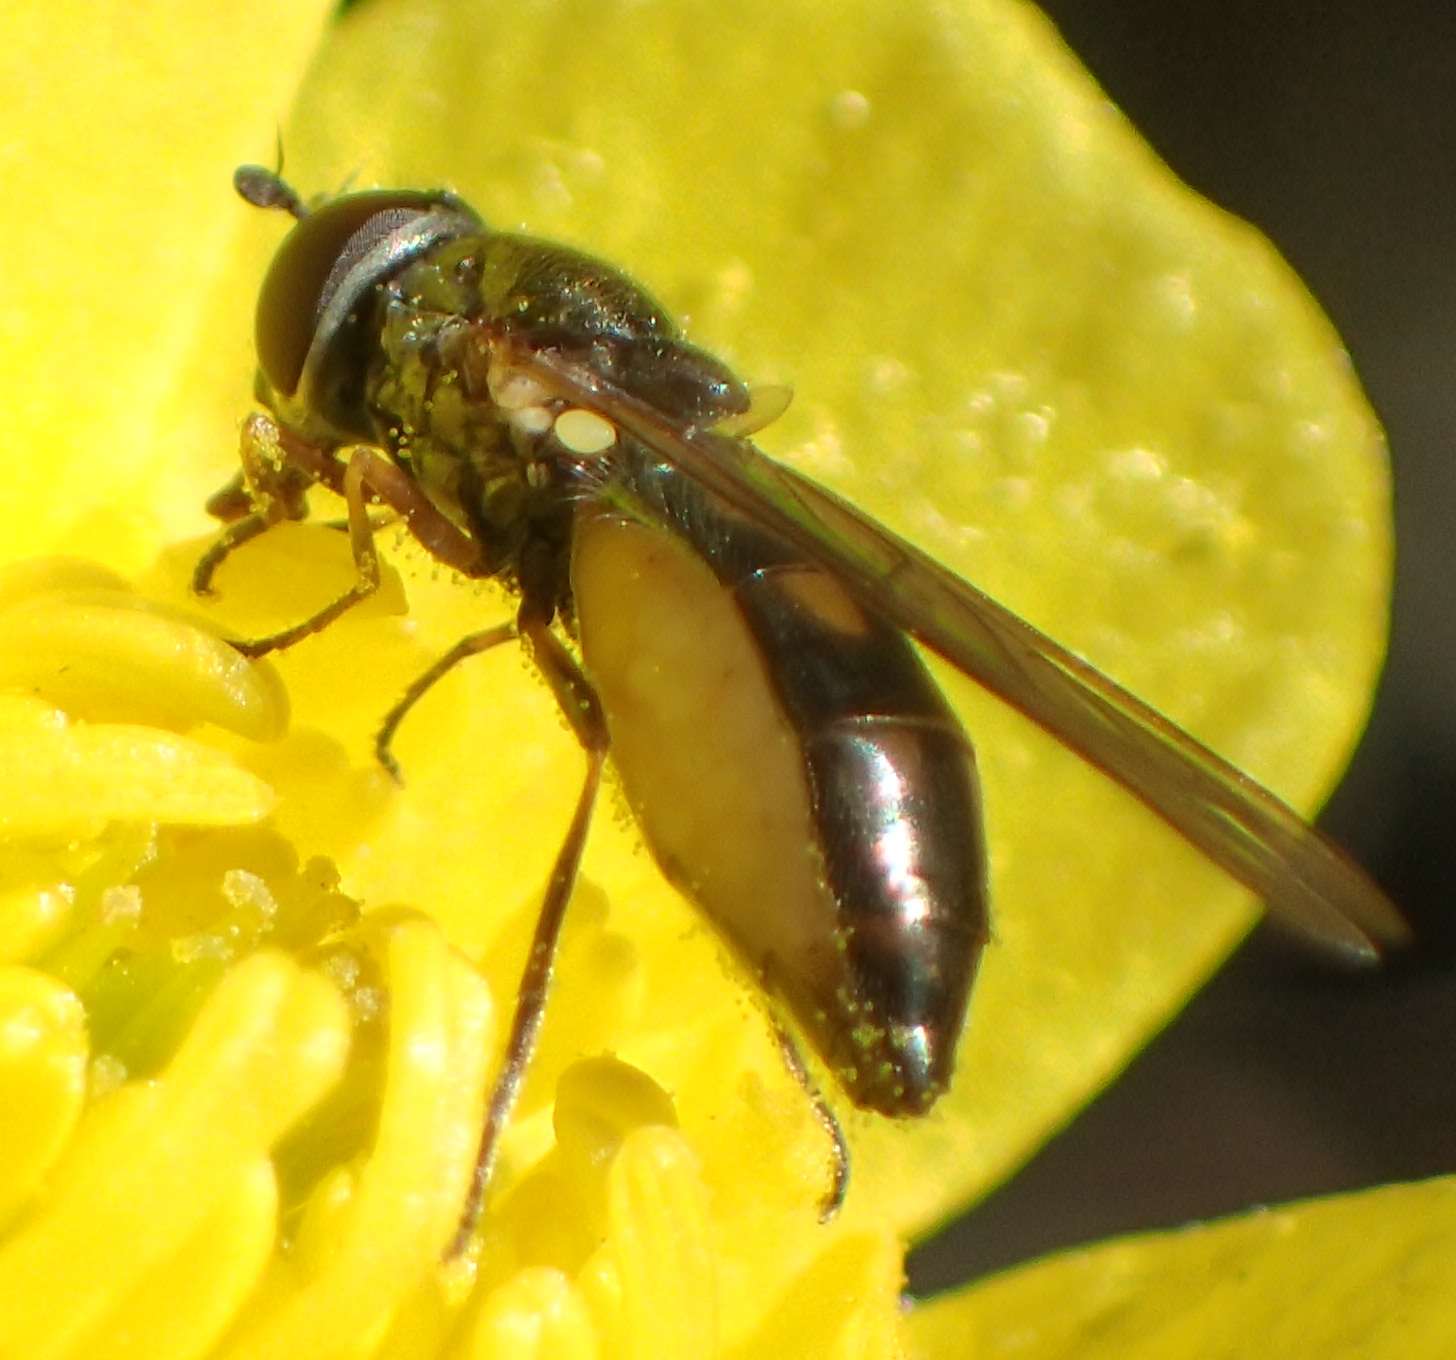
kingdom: Animalia
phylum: Arthropoda
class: Insecta
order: Diptera
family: Syrphidae
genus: Melanostoma
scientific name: Melanostoma mellina
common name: Hover fly
